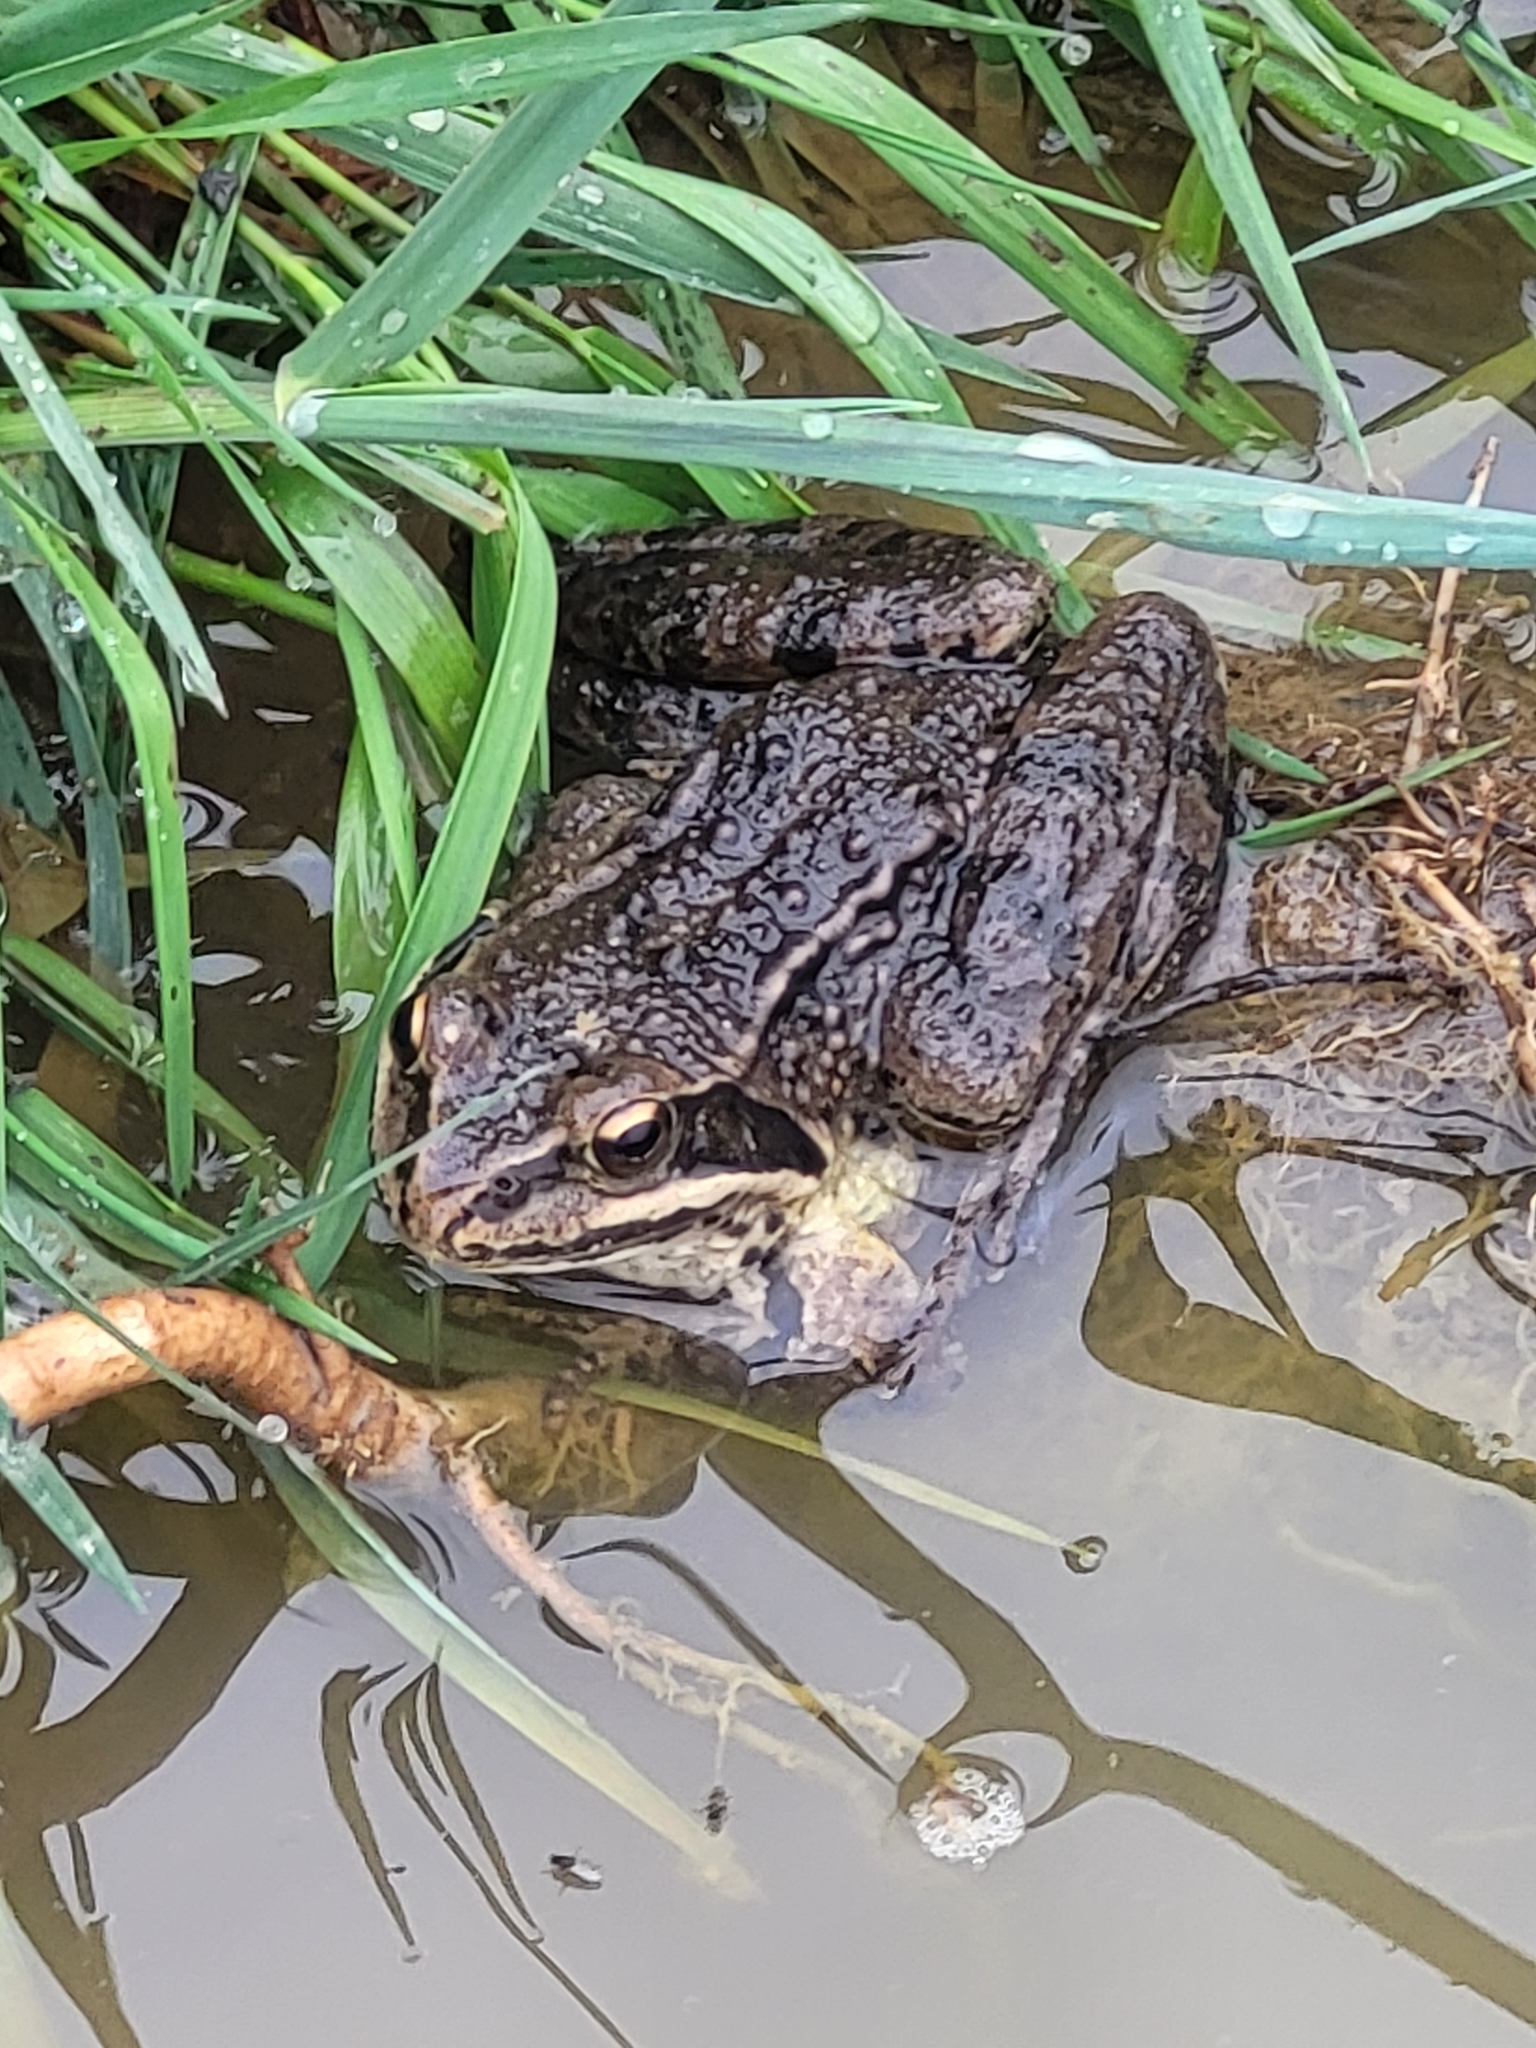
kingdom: Animalia
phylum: Chordata
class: Amphibia
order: Anura
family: Ranidae
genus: Rana
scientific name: Rana macrocnemis
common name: Banded frog
